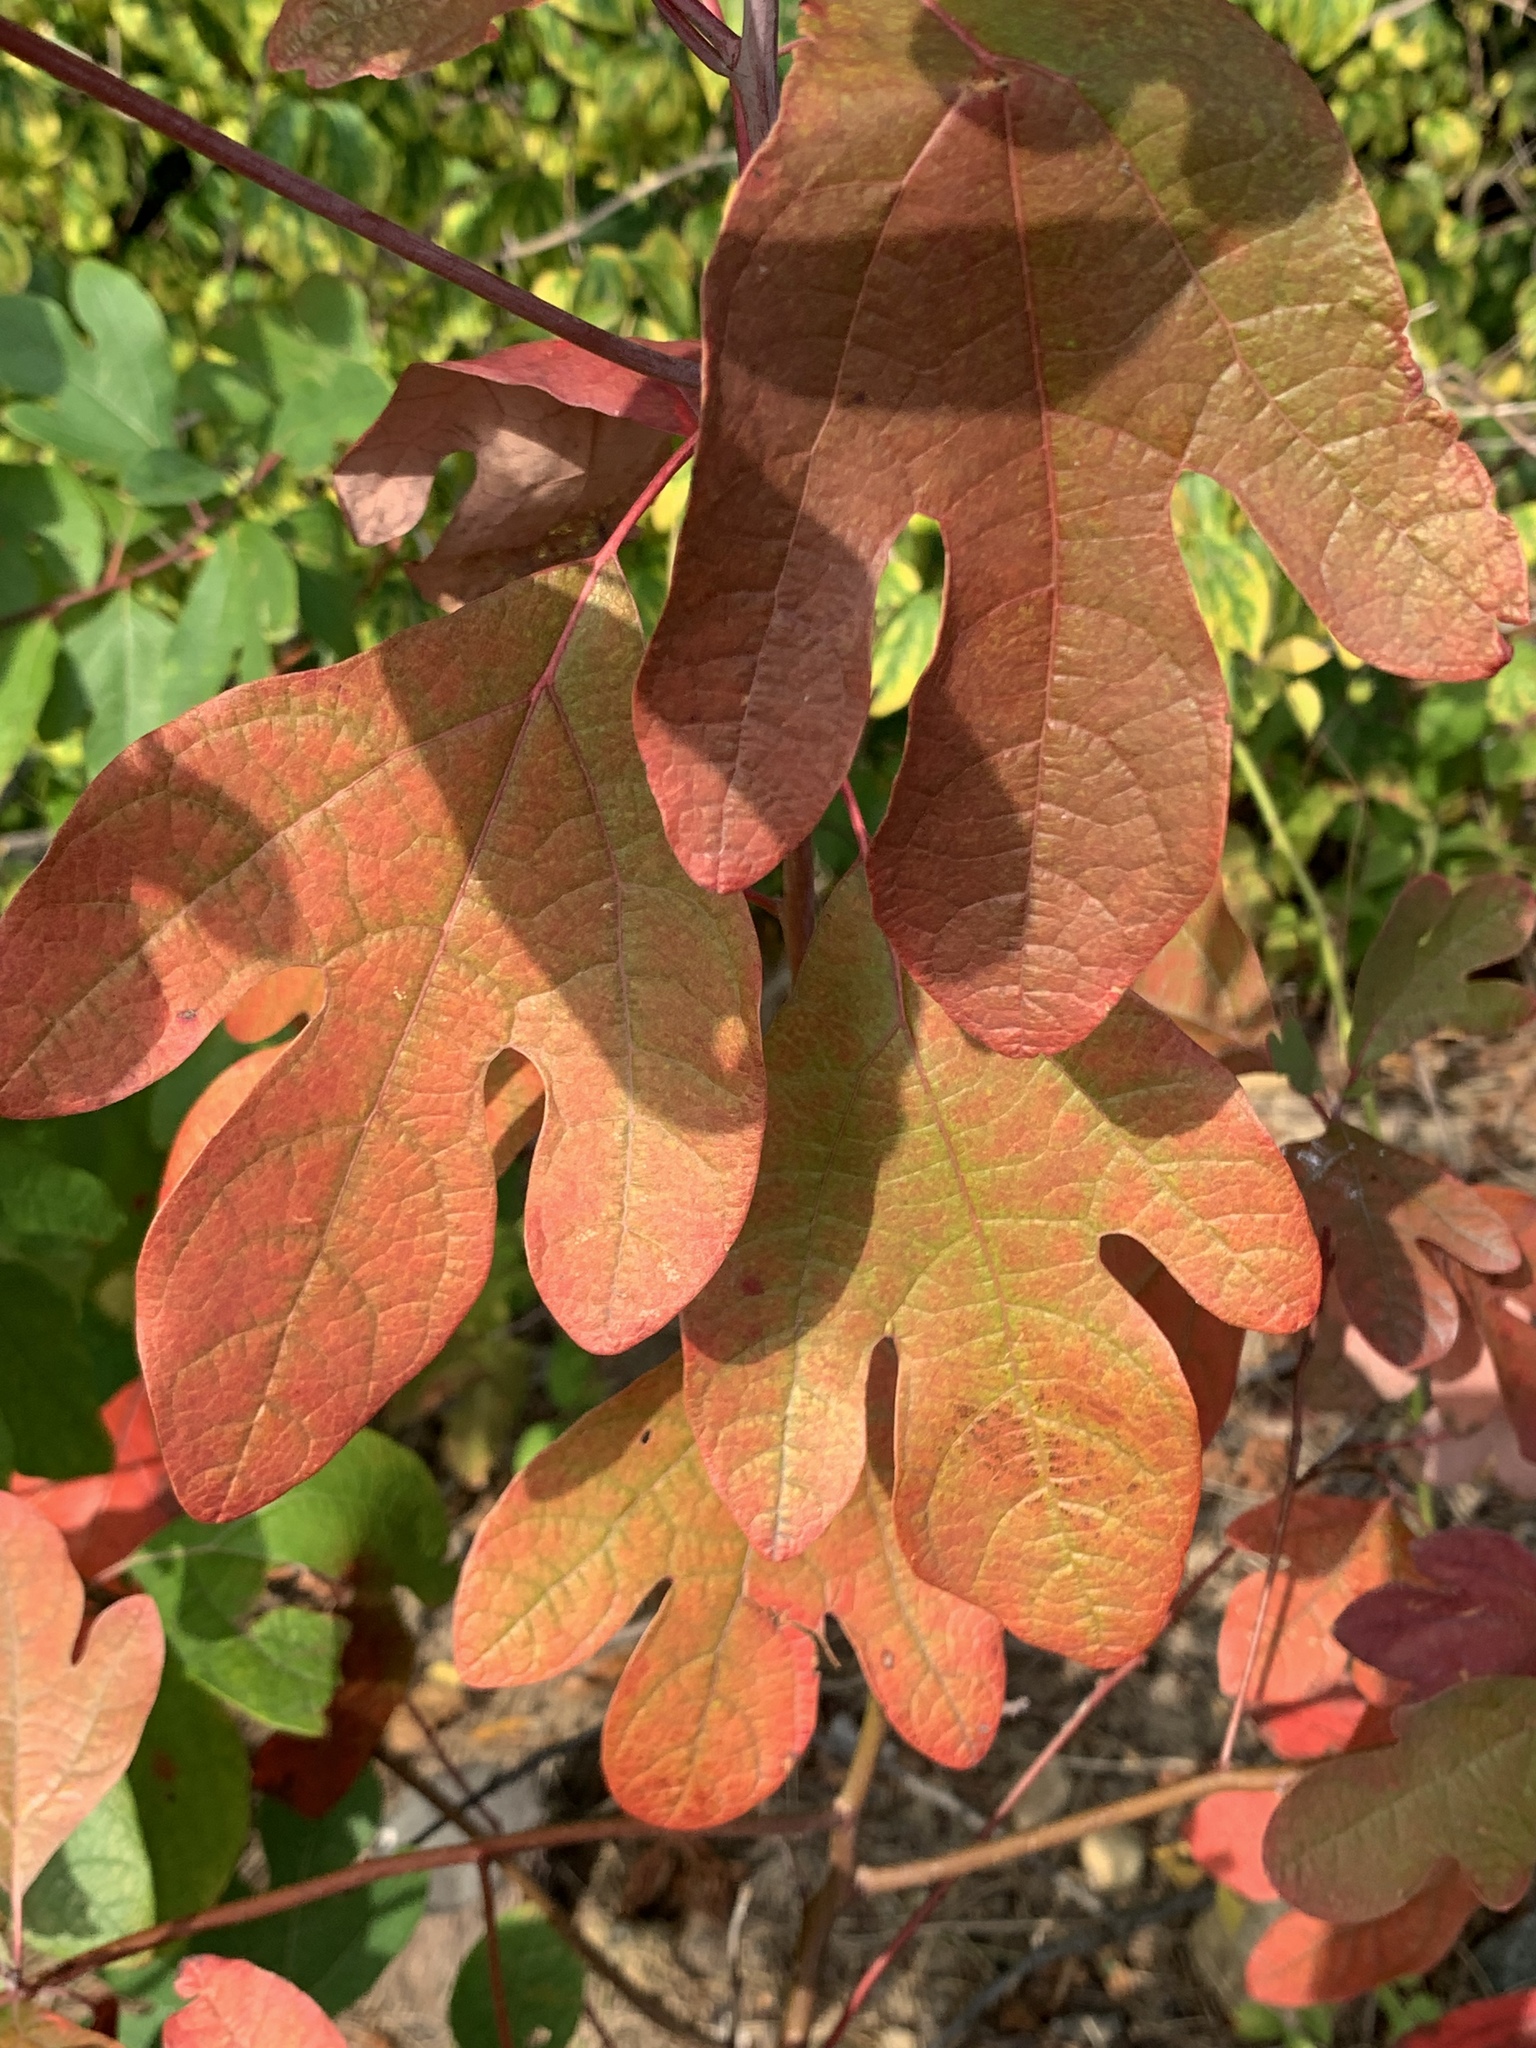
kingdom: Plantae
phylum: Tracheophyta
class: Magnoliopsida
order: Laurales
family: Lauraceae
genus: Sassafras
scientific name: Sassafras albidum
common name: Sassafras
